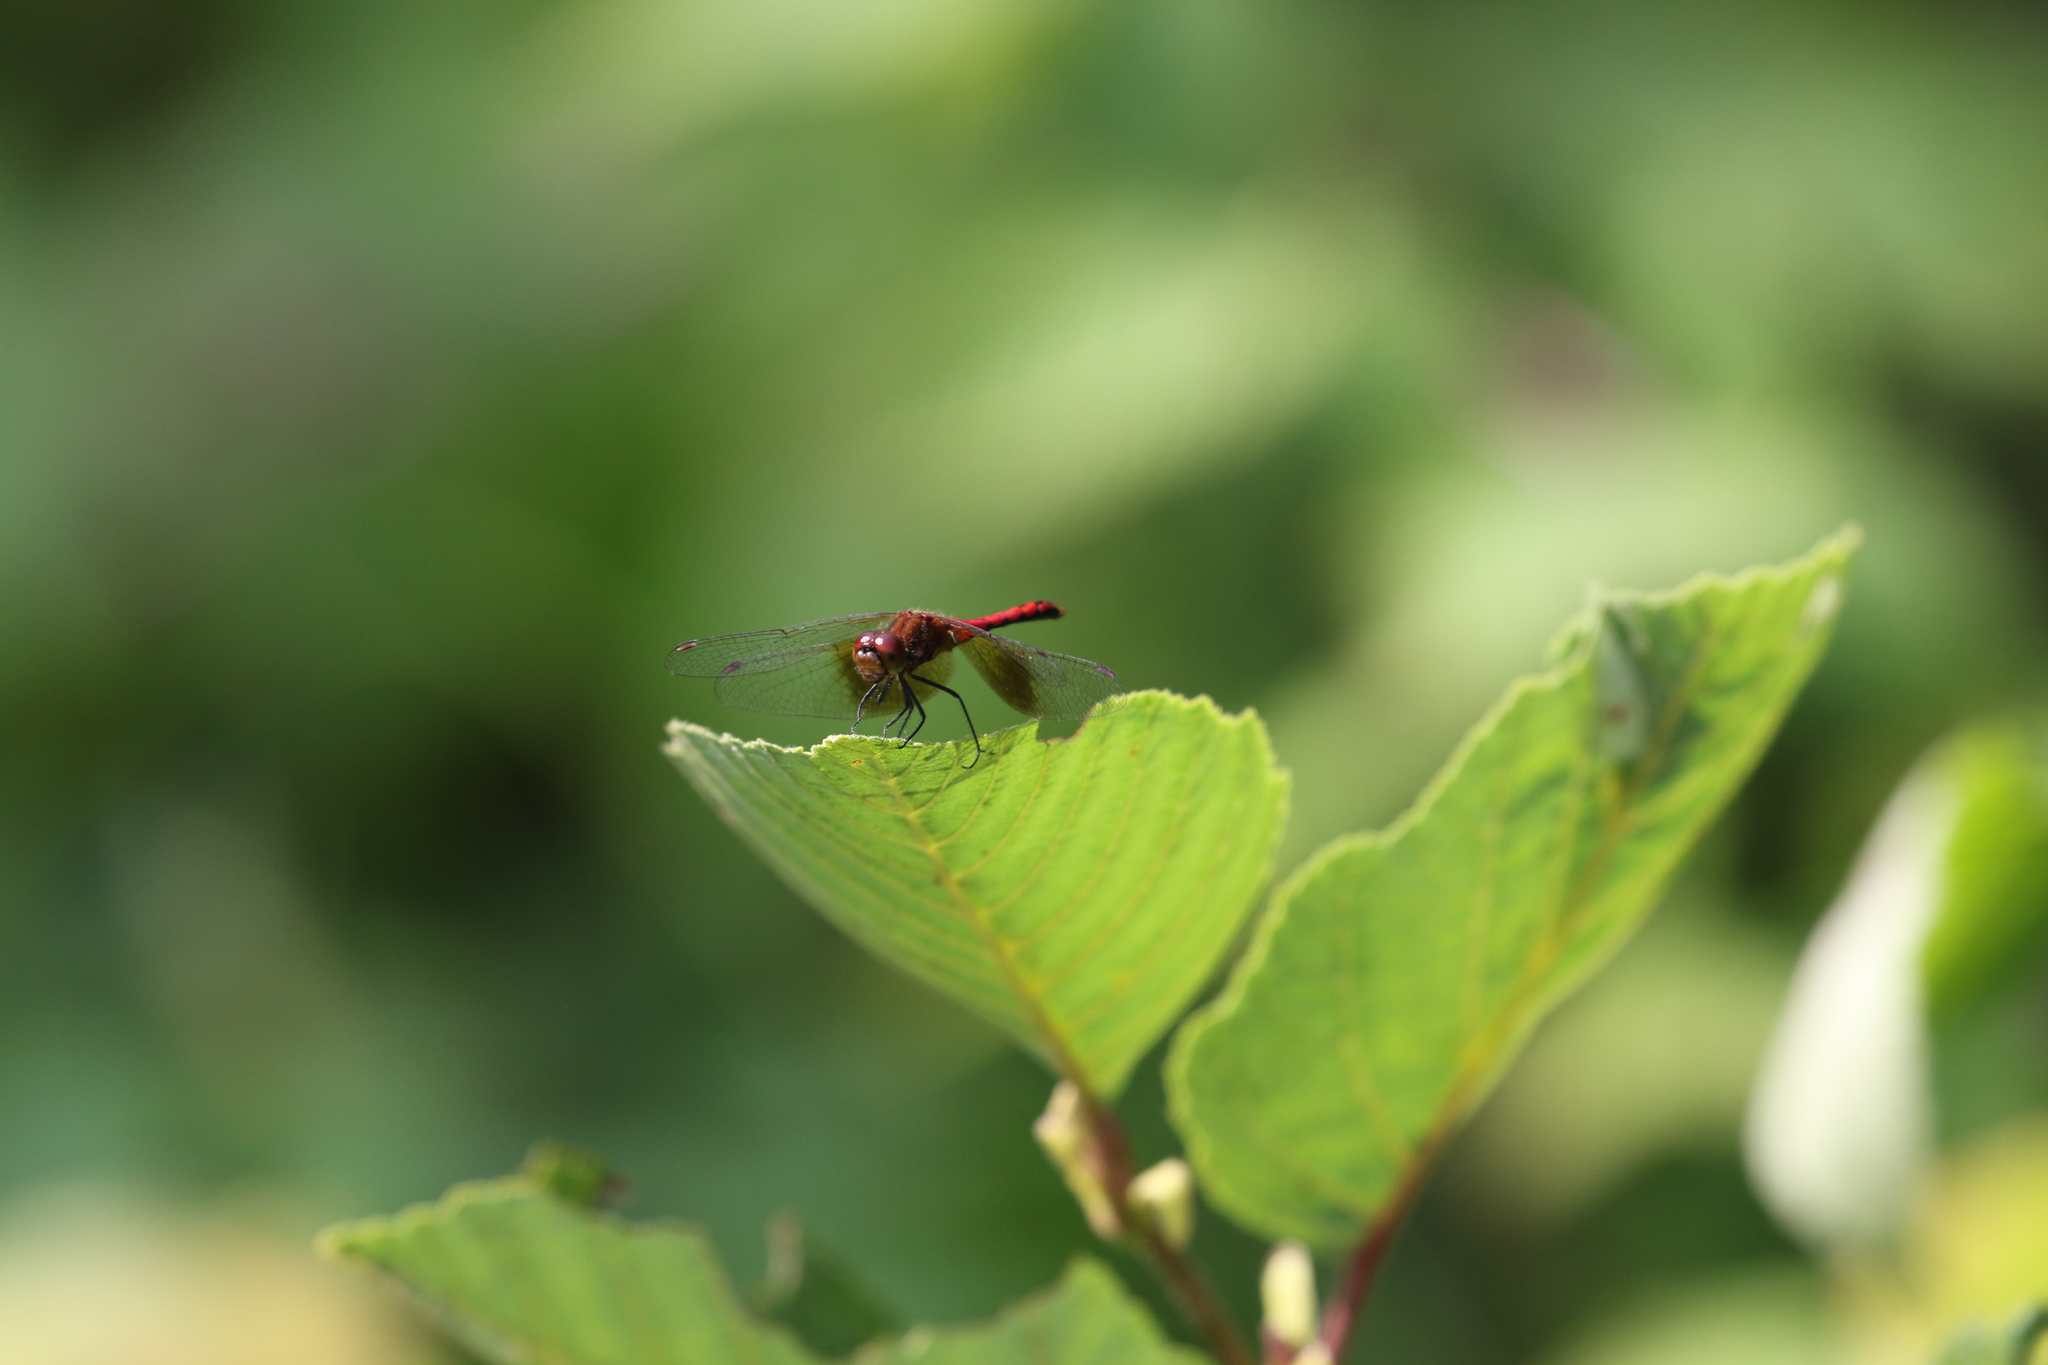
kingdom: Animalia
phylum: Arthropoda
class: Insecta
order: Odonata
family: Libellulidae
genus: Sympetrum
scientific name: Sympetrum semicinctum
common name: Band-winged meadowhawk
